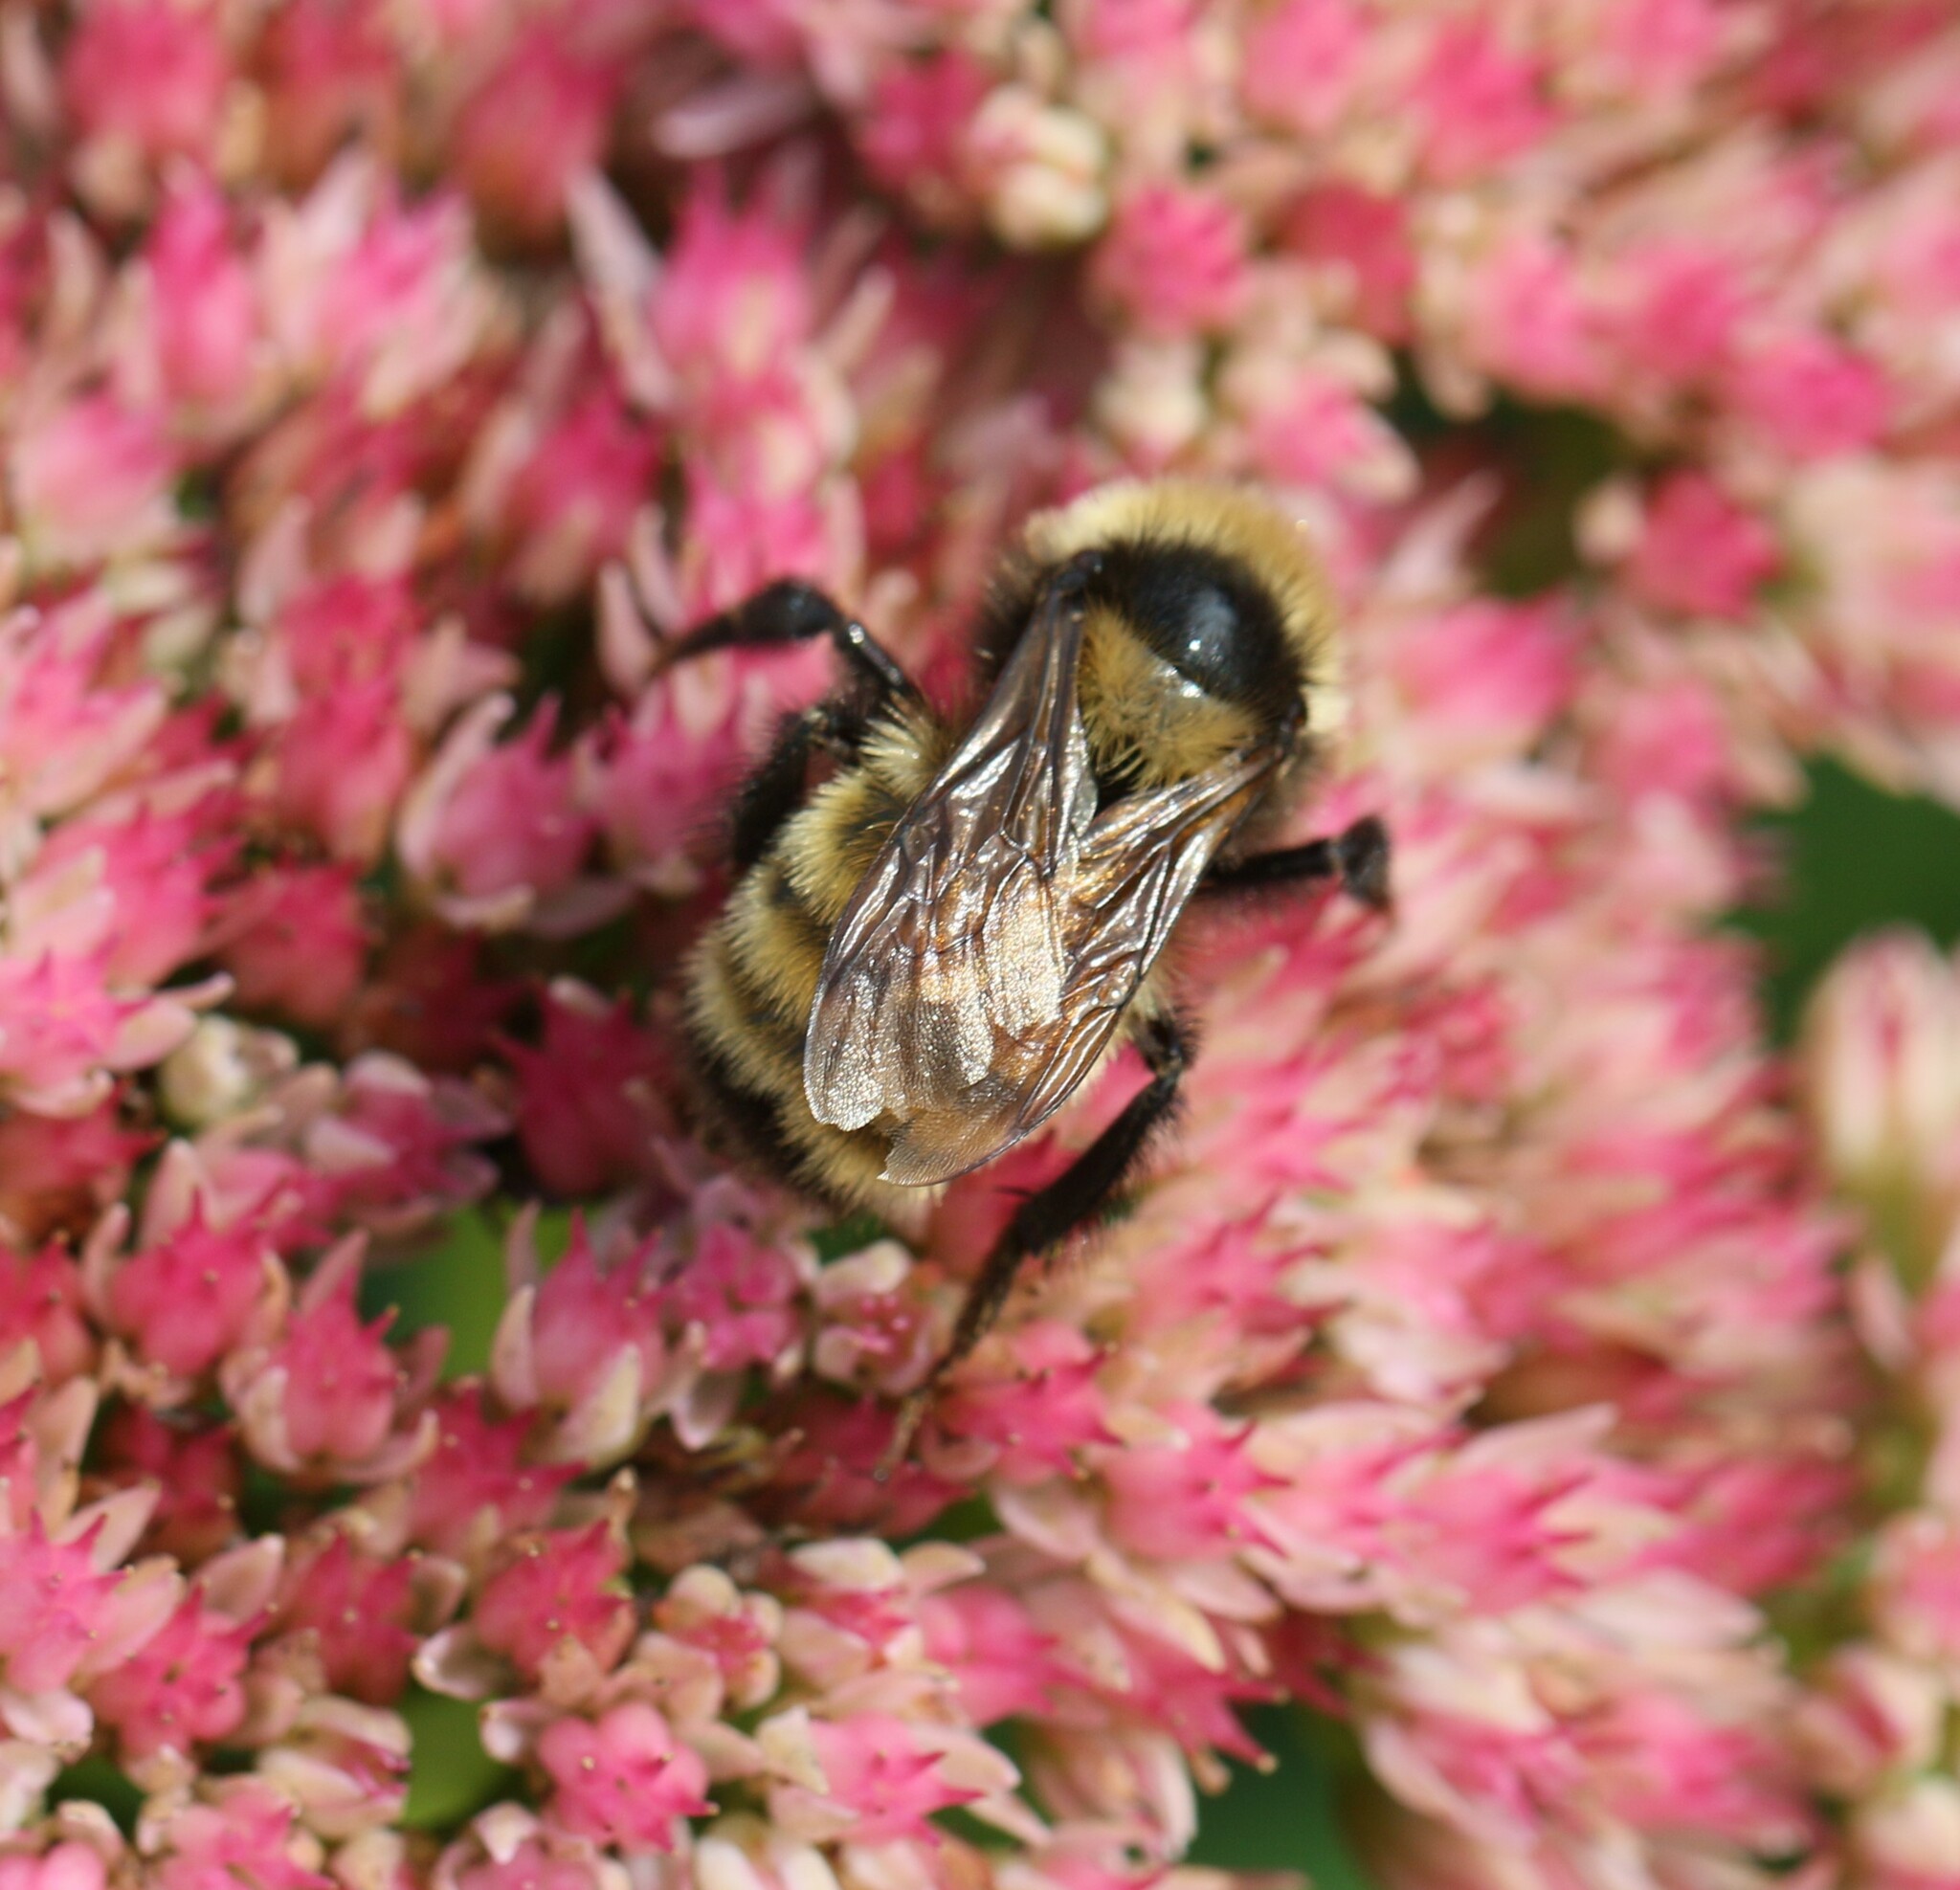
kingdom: Animalia
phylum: Arthropoda
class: Insecta
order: Hymenoptera
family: Apidae
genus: Bombus
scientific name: Bombus borealis
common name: Northern amber bumble bee
